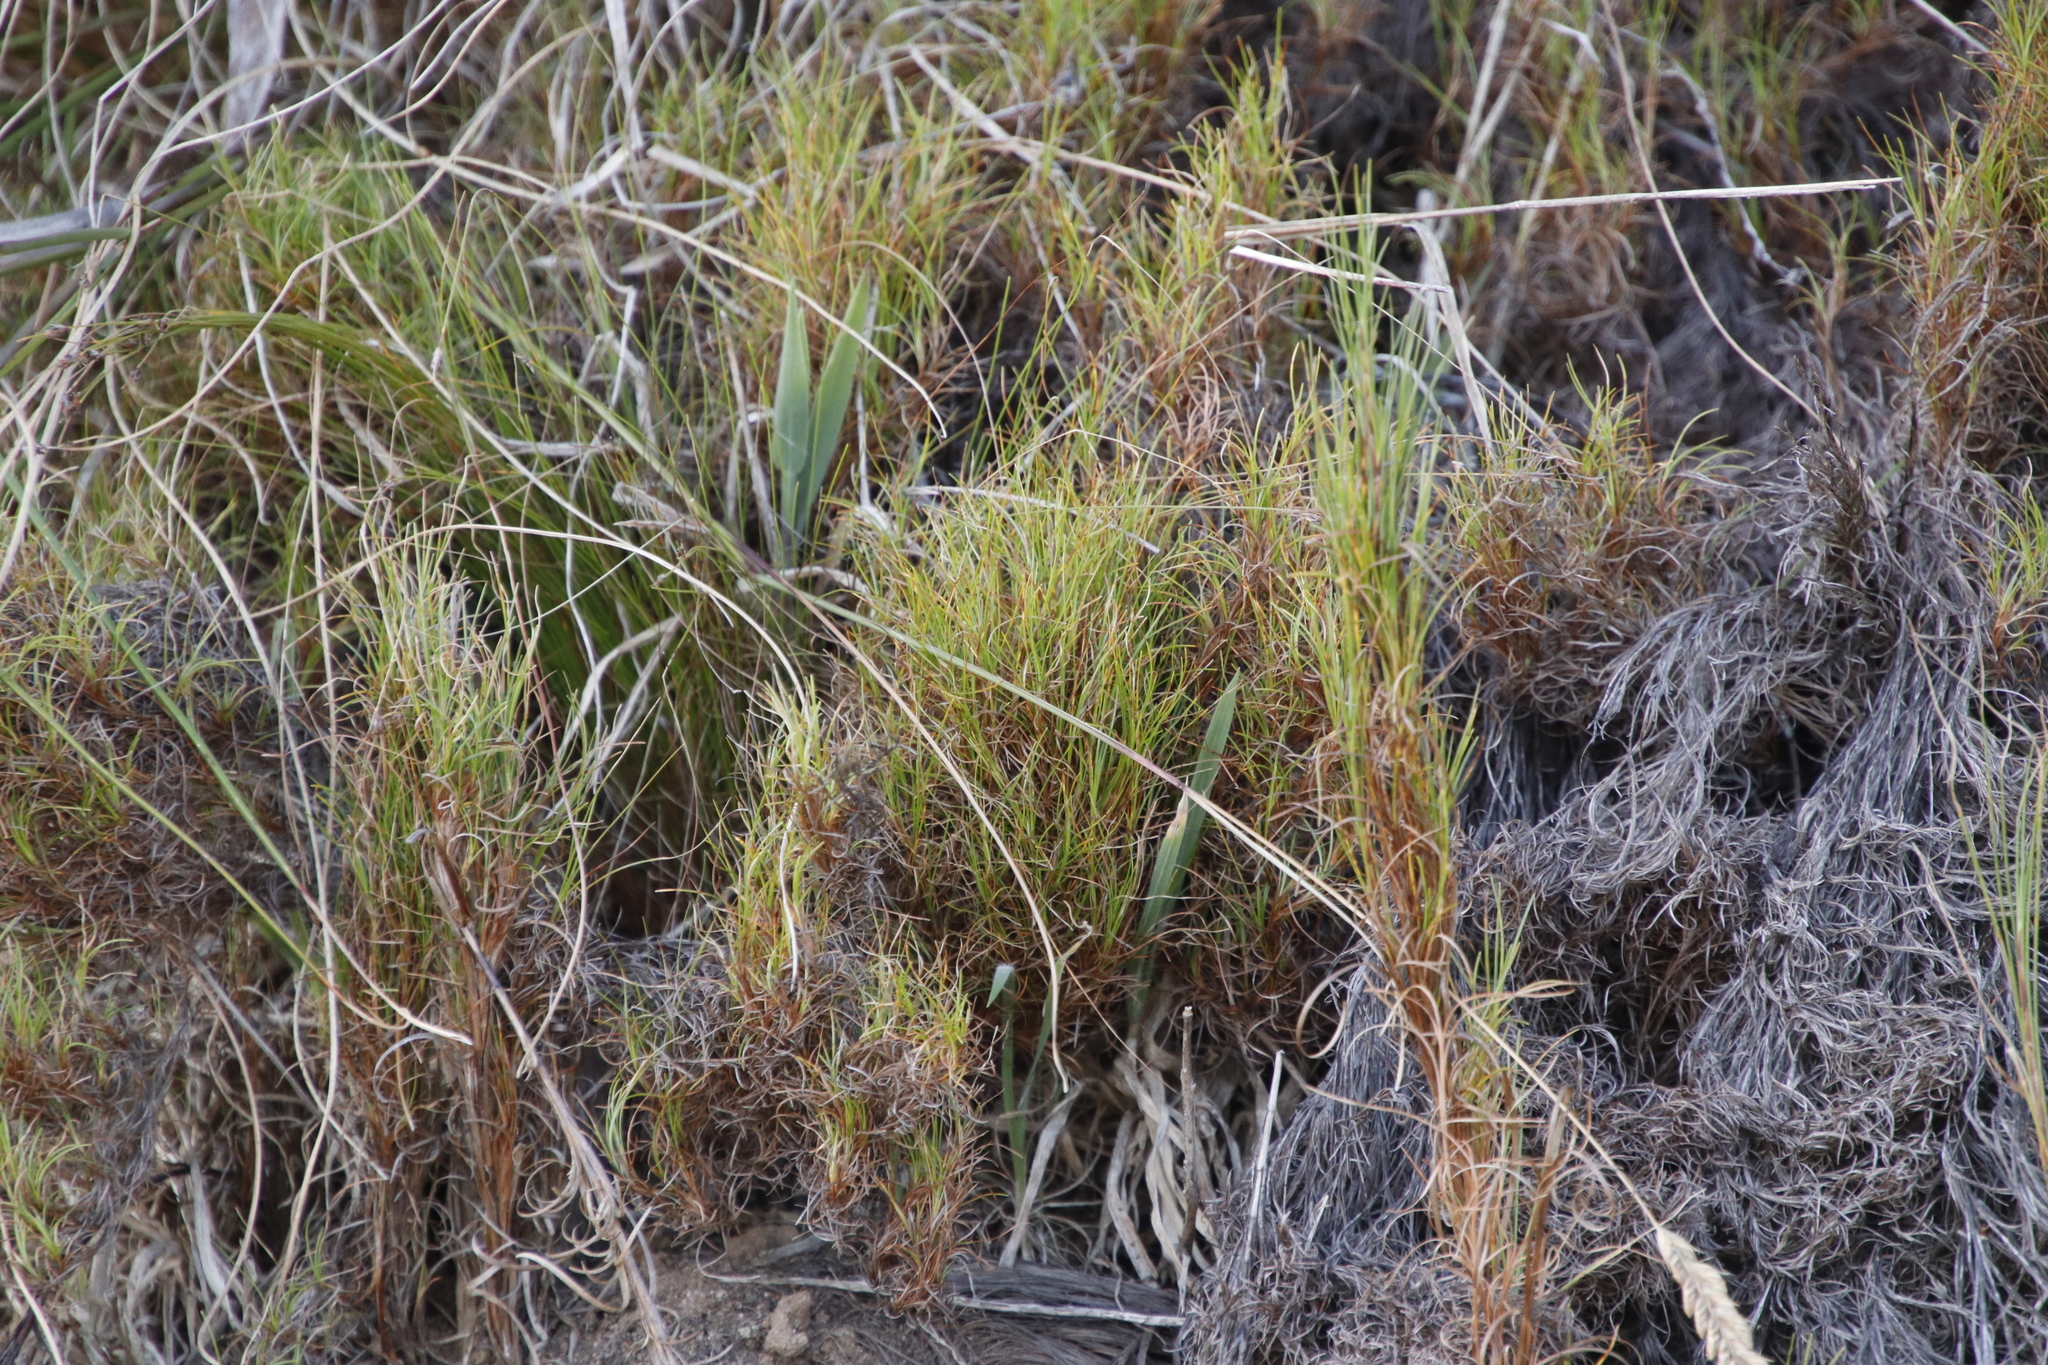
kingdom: Plantae
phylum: Tracheophyta
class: Liliopsida
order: Poales
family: Cyperaceae
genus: Ficinia
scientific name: Ficinia ramosissima
